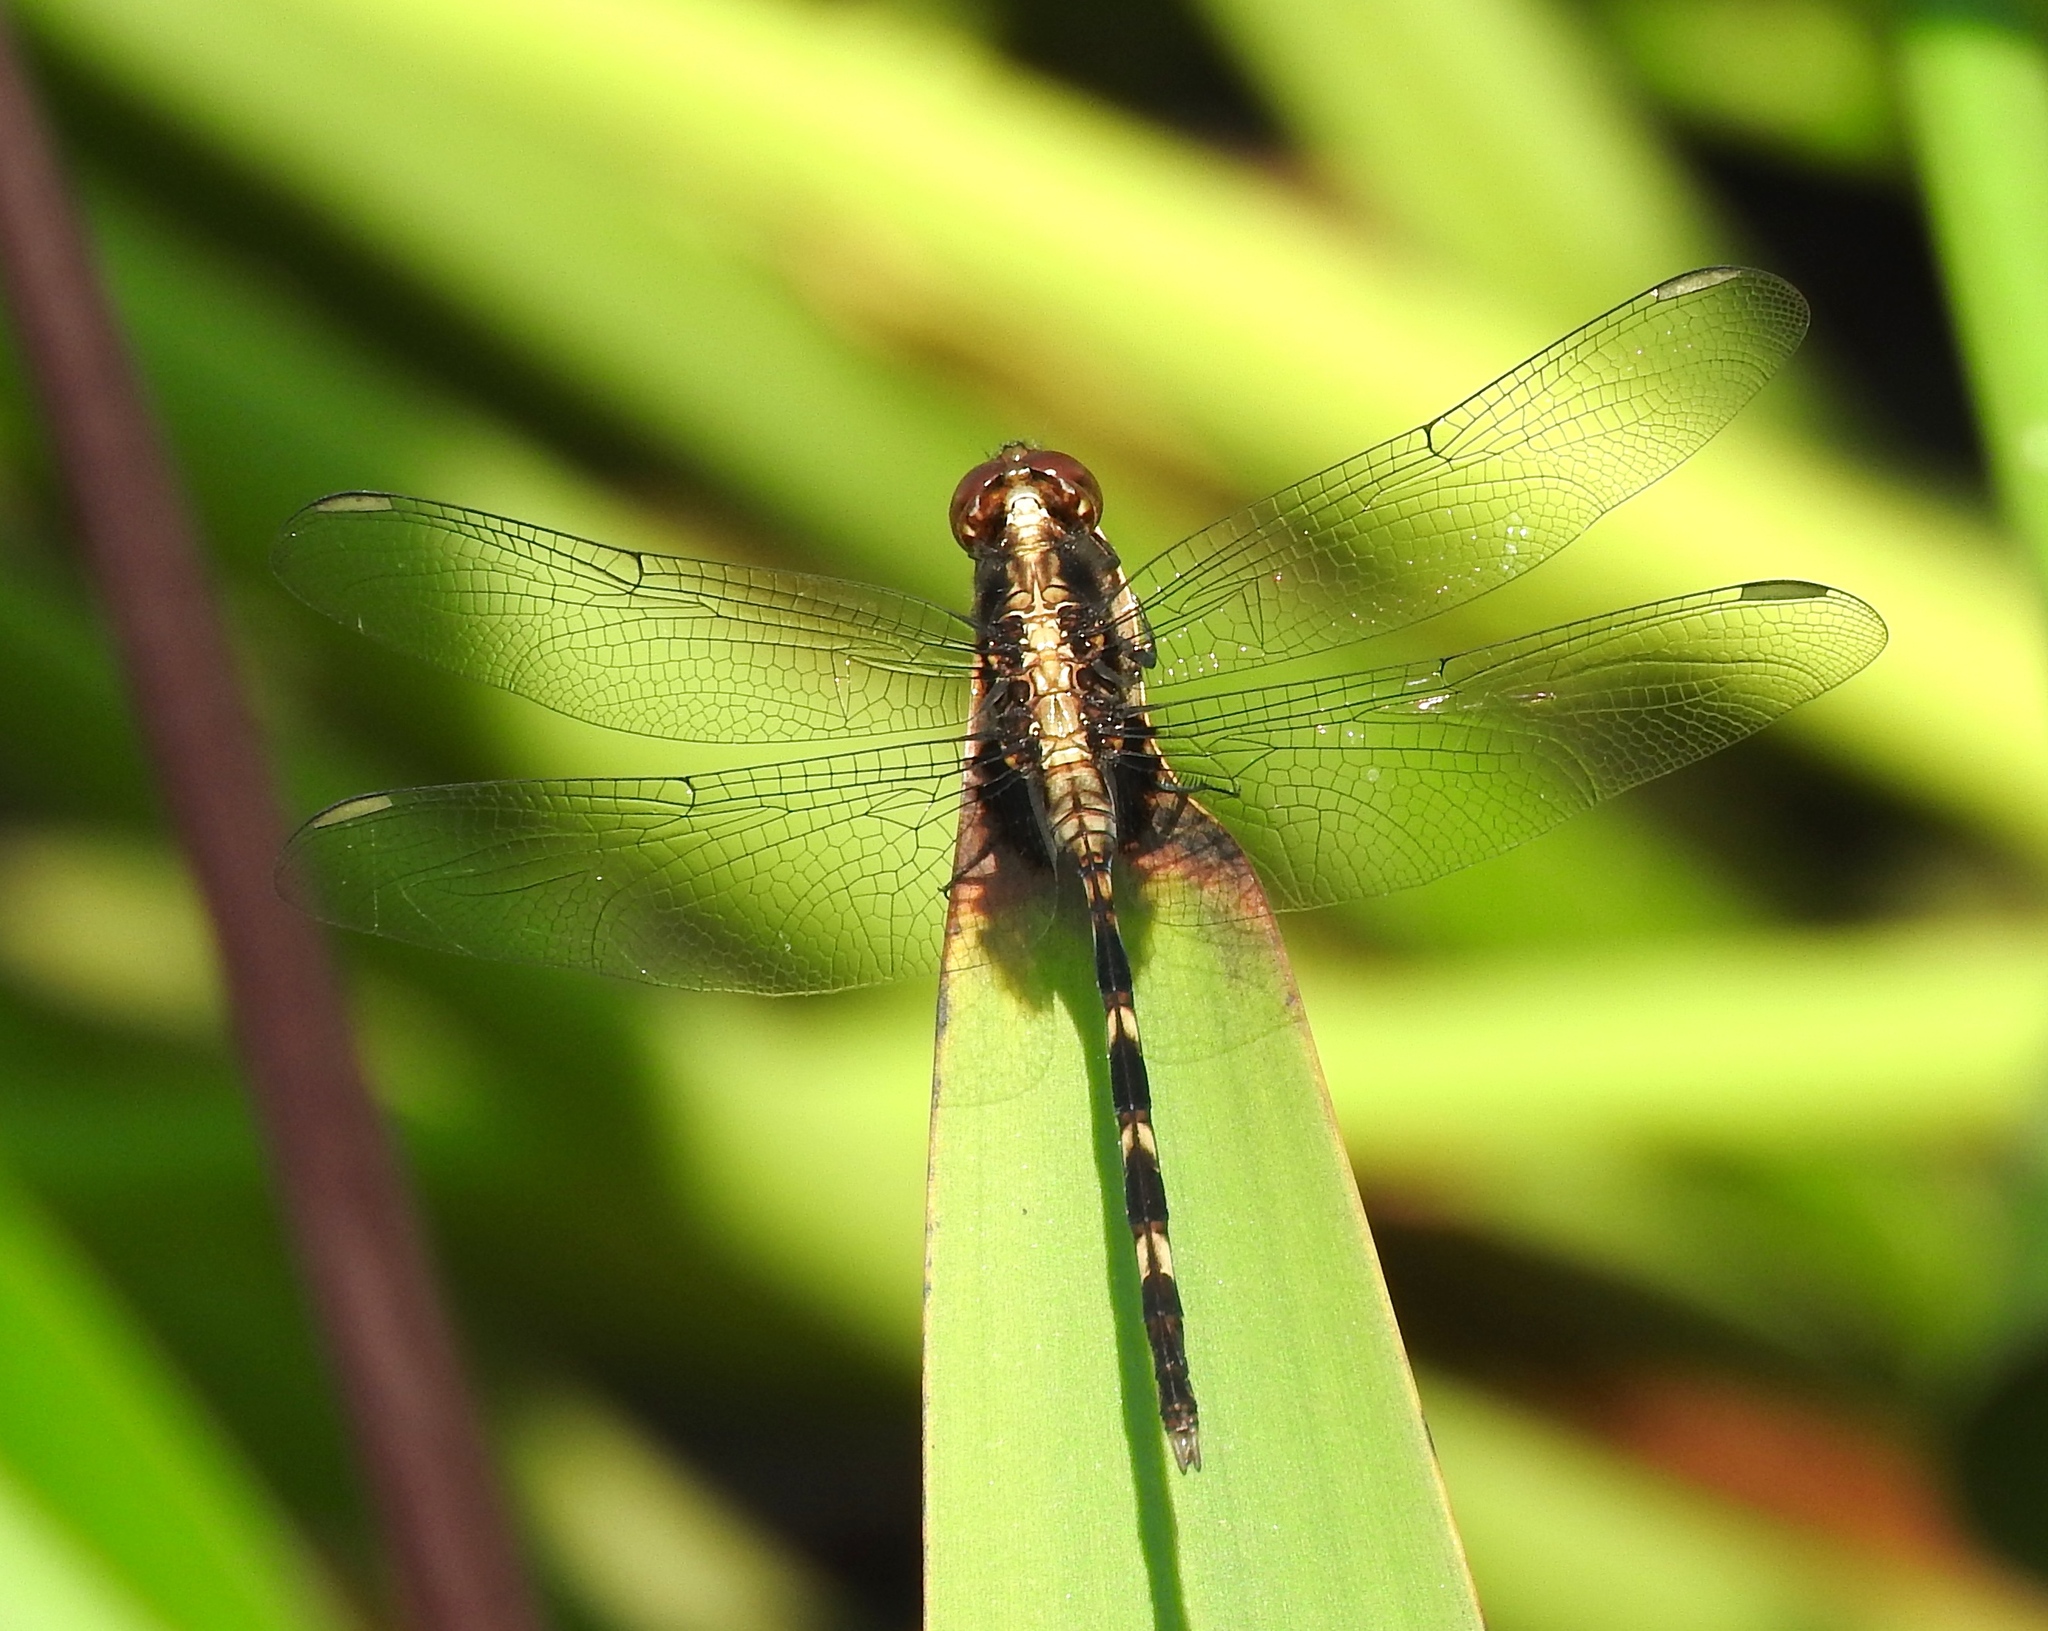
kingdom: Animalia
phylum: Arthropoda
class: Insecta
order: Odonata
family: Libellulidae
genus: Erythemis
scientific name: Erythemis plebeja
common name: Pin-tailed pondhawk
